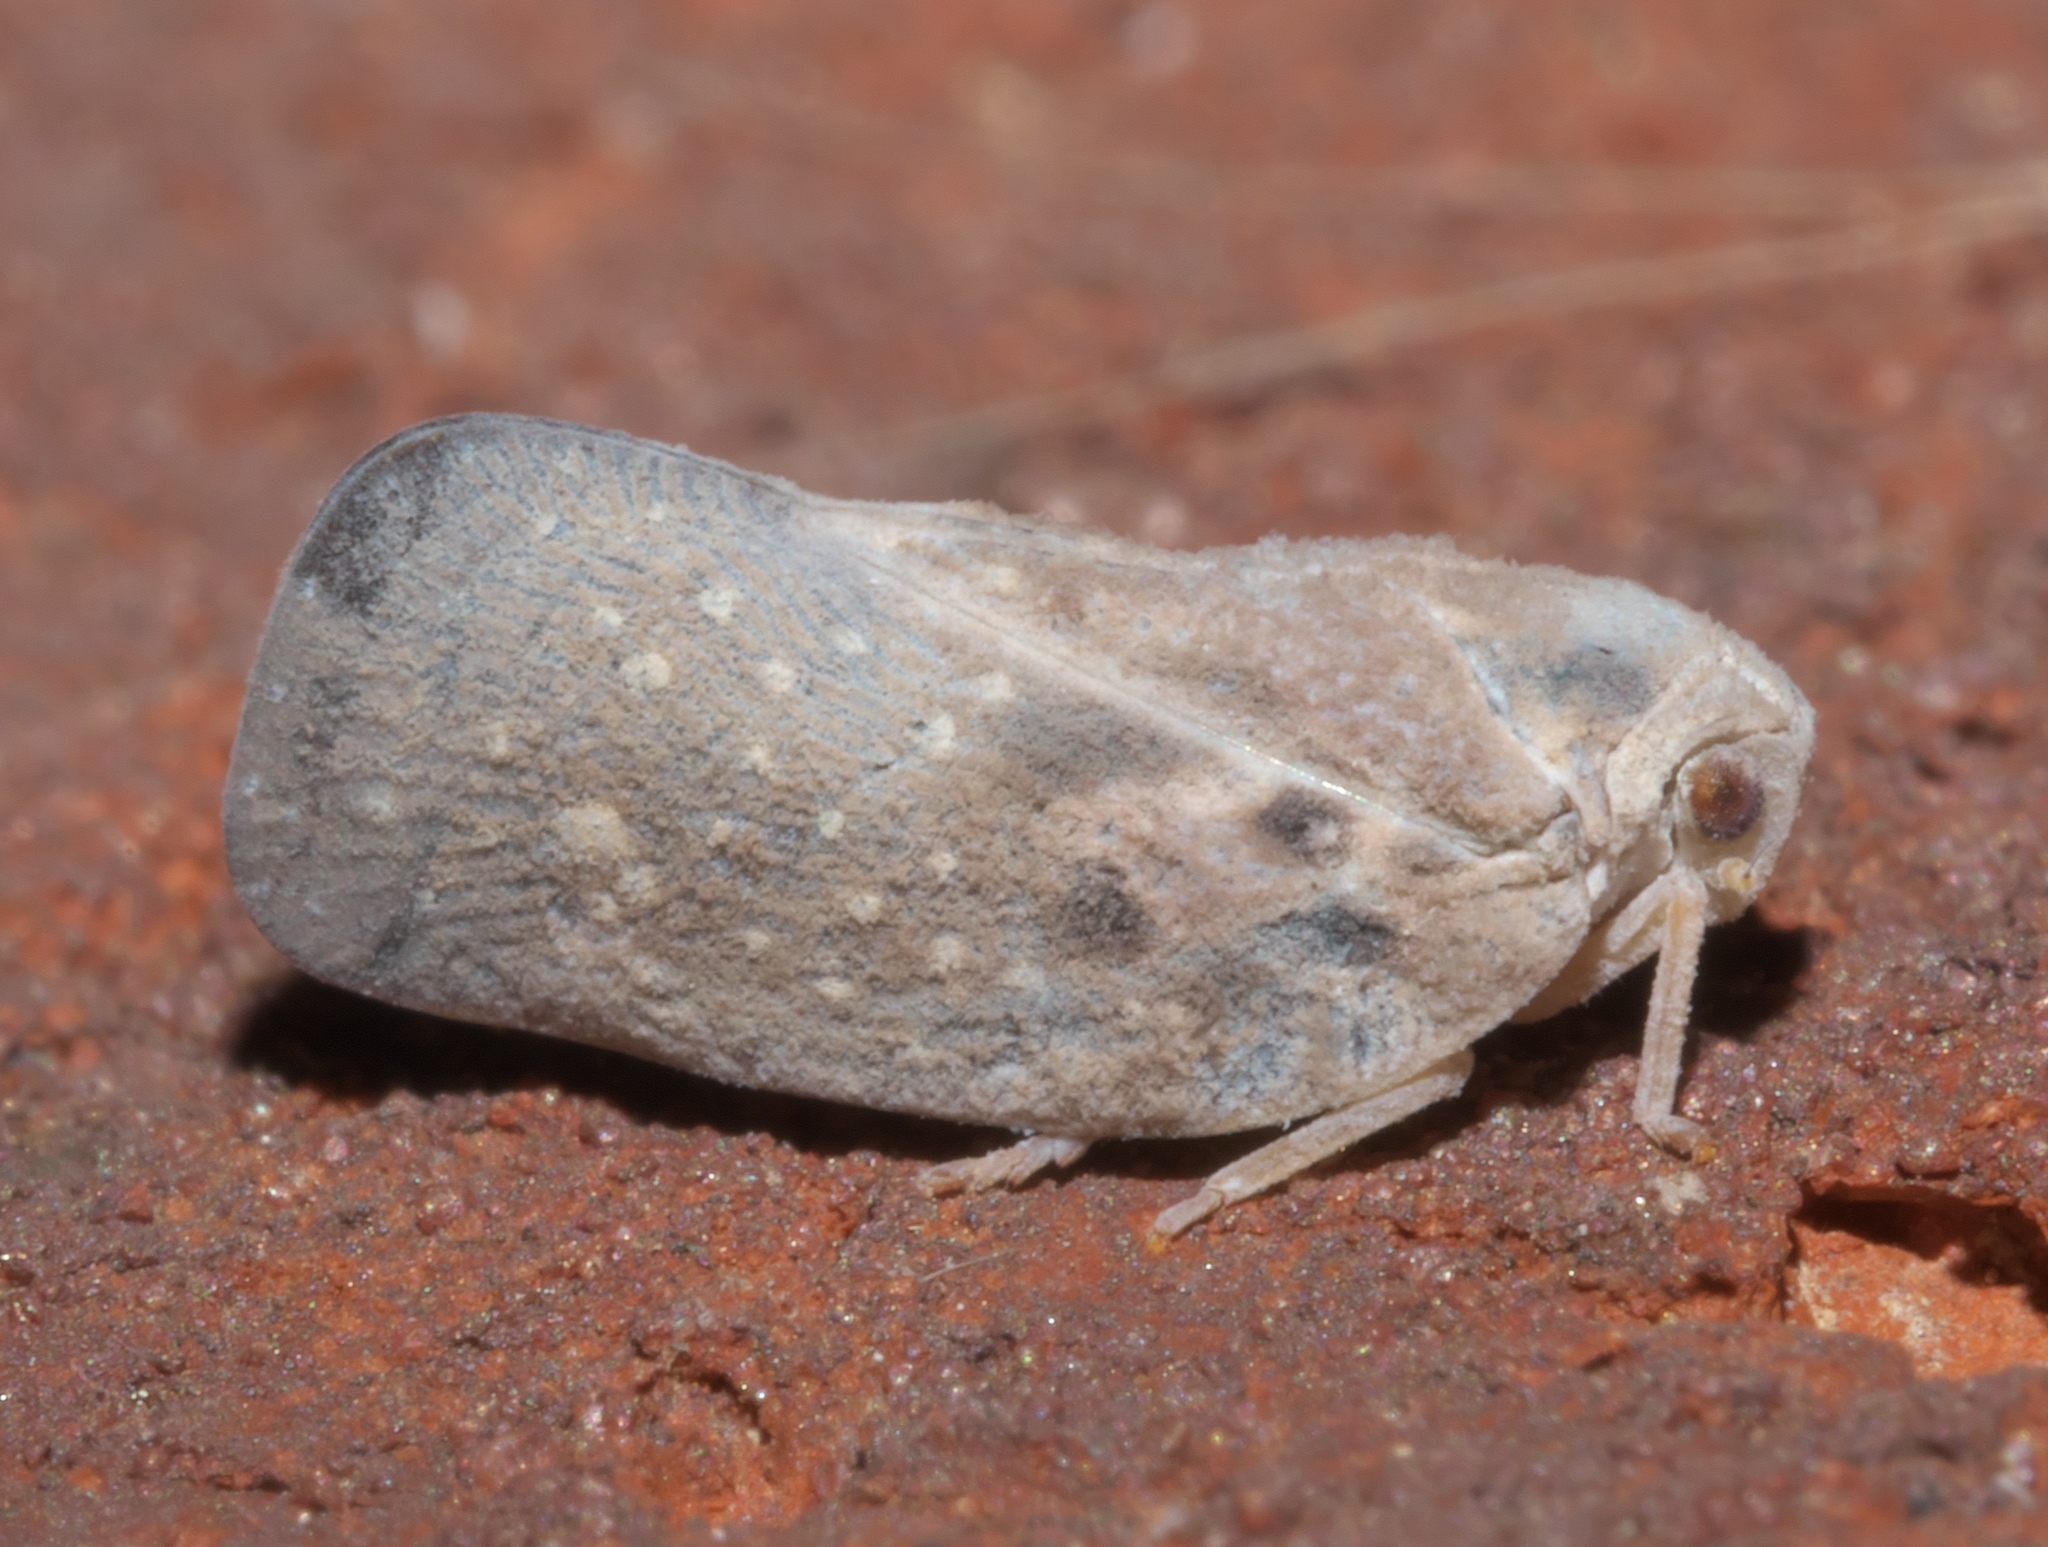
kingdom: Animalia
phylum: Arthropoda
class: Insecta
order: Hemiptera
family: Flatidae
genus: Metcalfa
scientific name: Metcalfa pruinosa
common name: Citrus flatid planthopper
